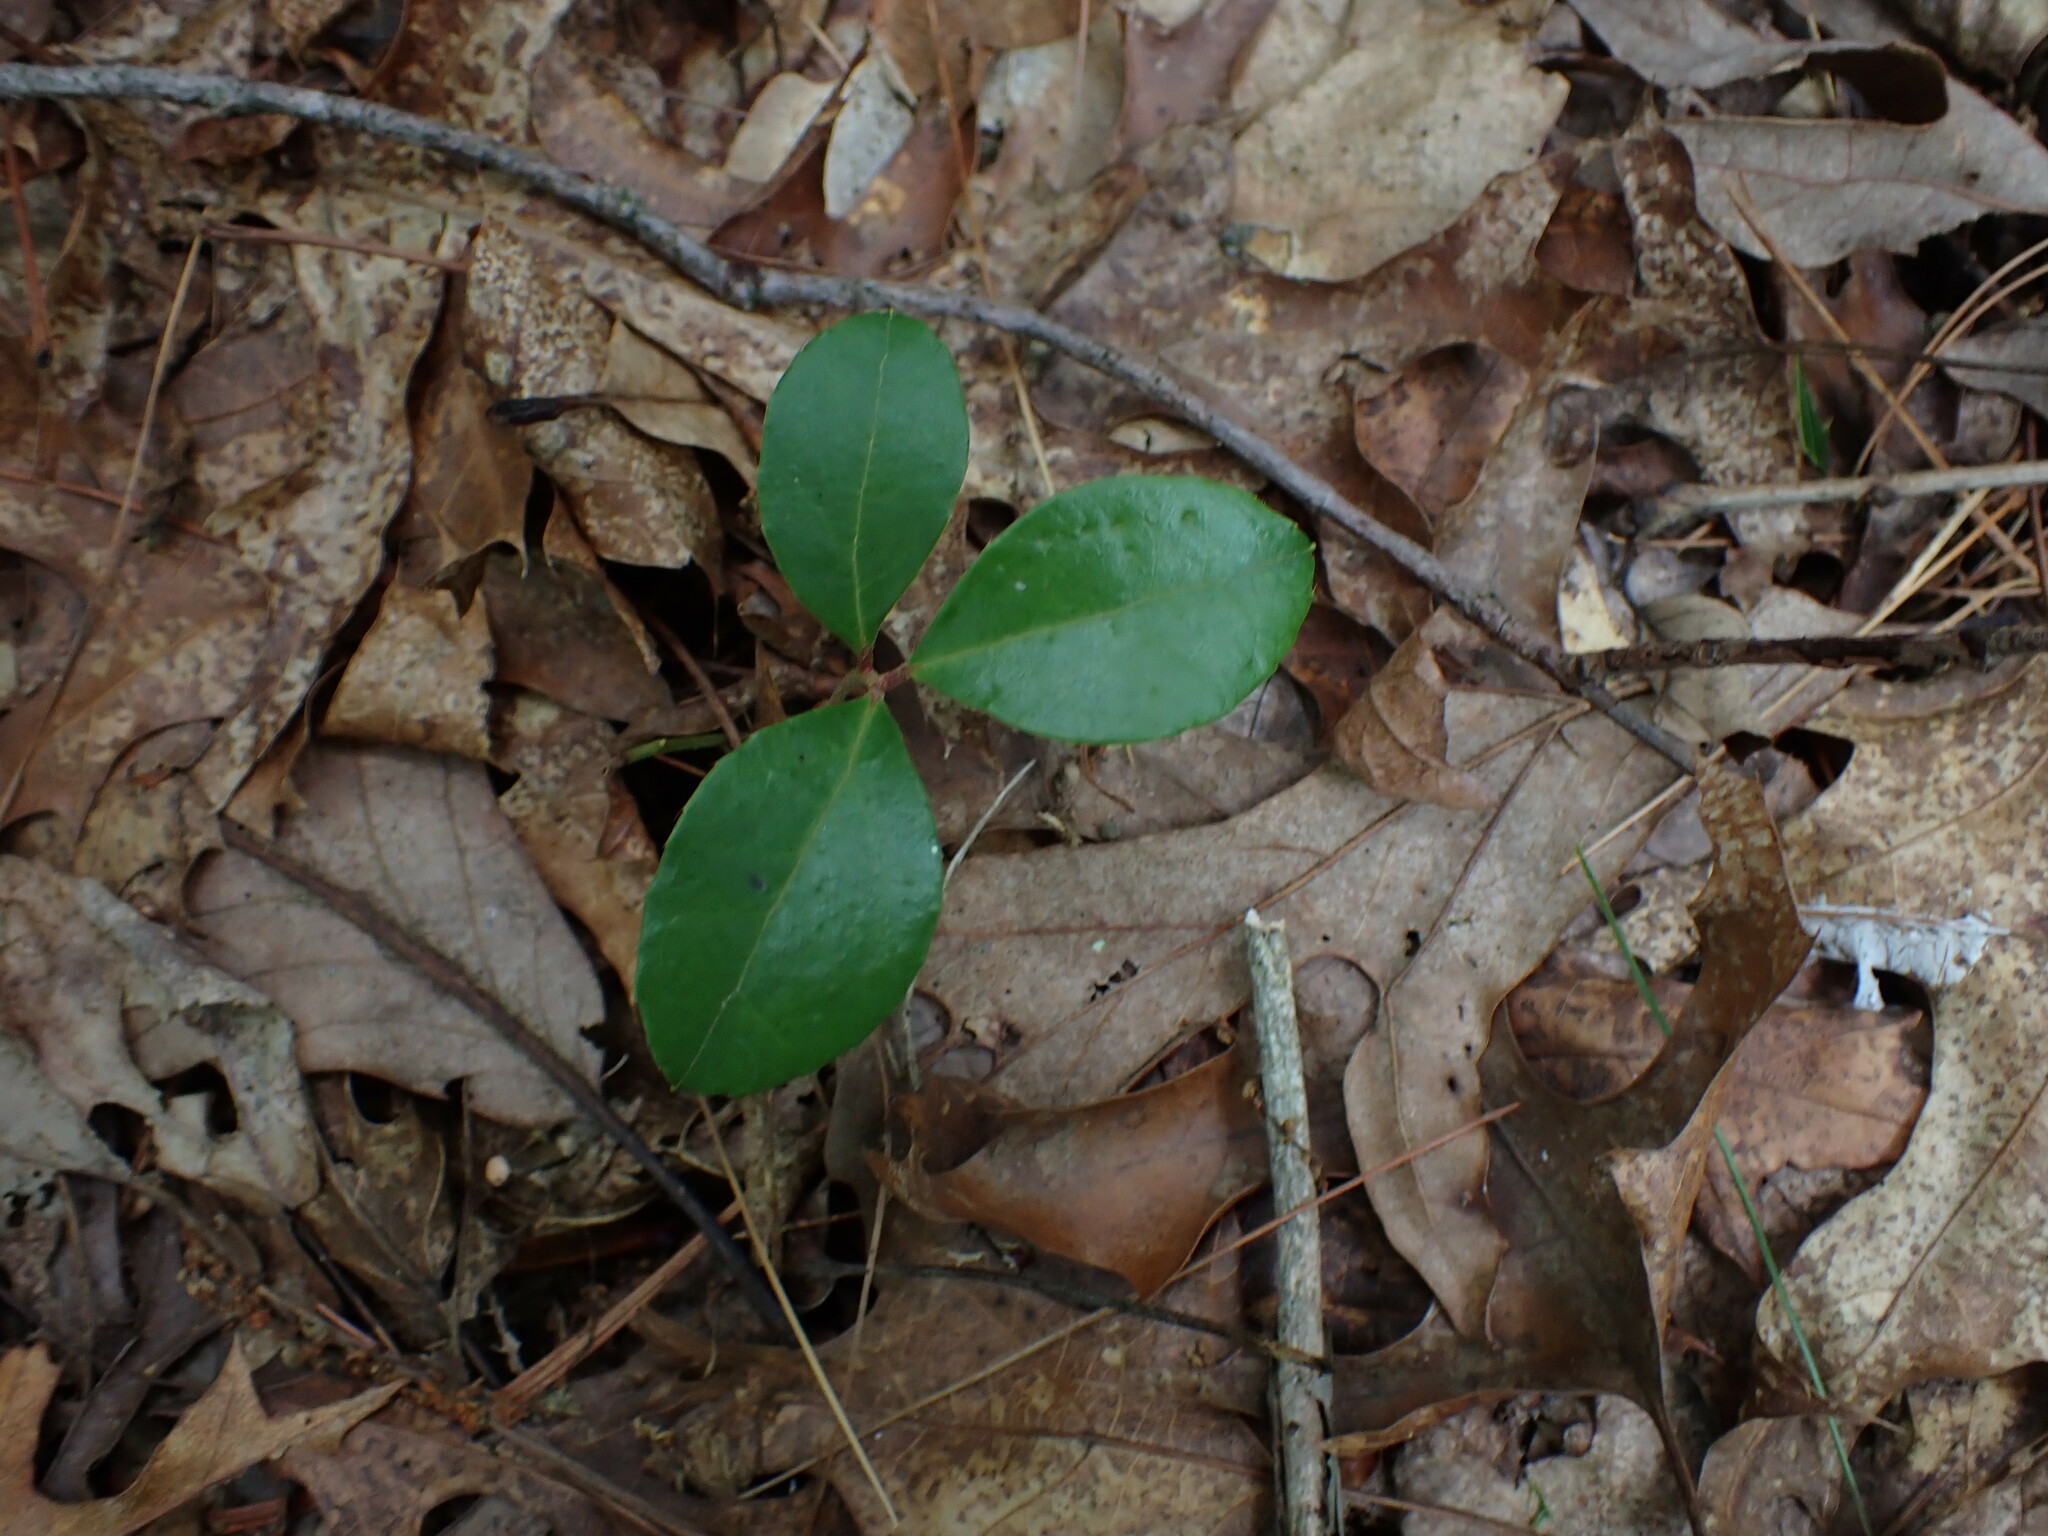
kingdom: Plantae
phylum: Tracheophyta
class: Magnoliopsida
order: Ericales
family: Ericaceae
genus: Gaultheria
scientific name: Gaultheria procumbens
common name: Checkerberry
